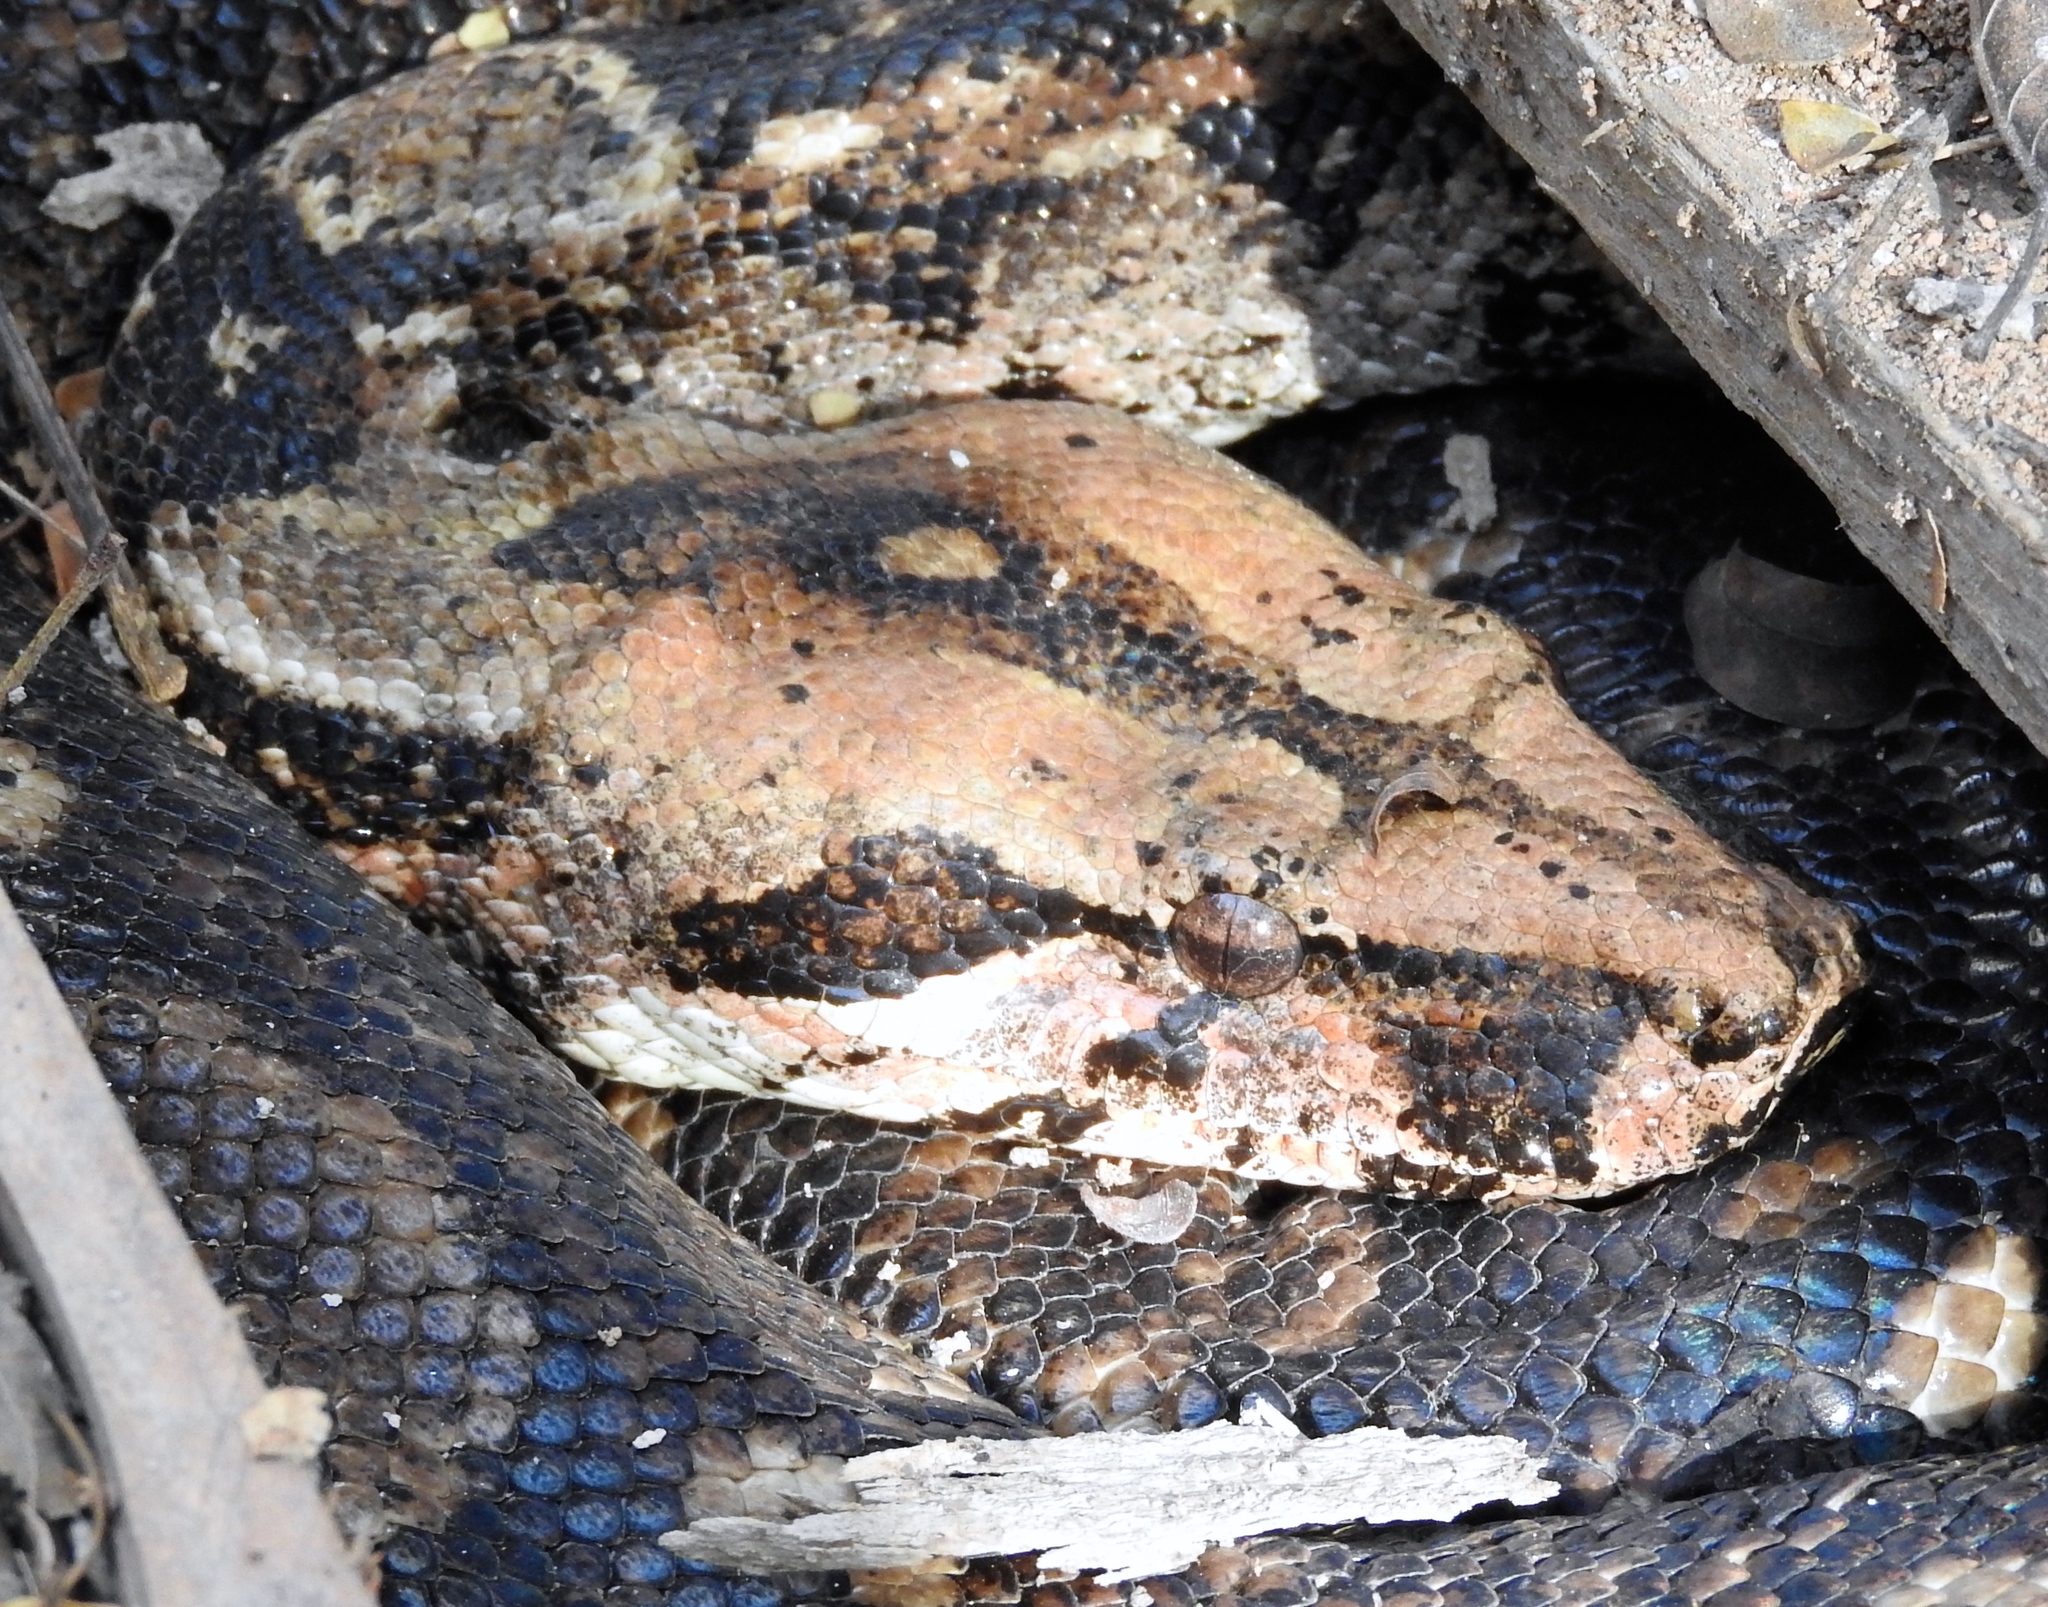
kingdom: Animalia
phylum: Chordata
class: Squamata
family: Boidae
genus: Boa
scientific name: Boa
